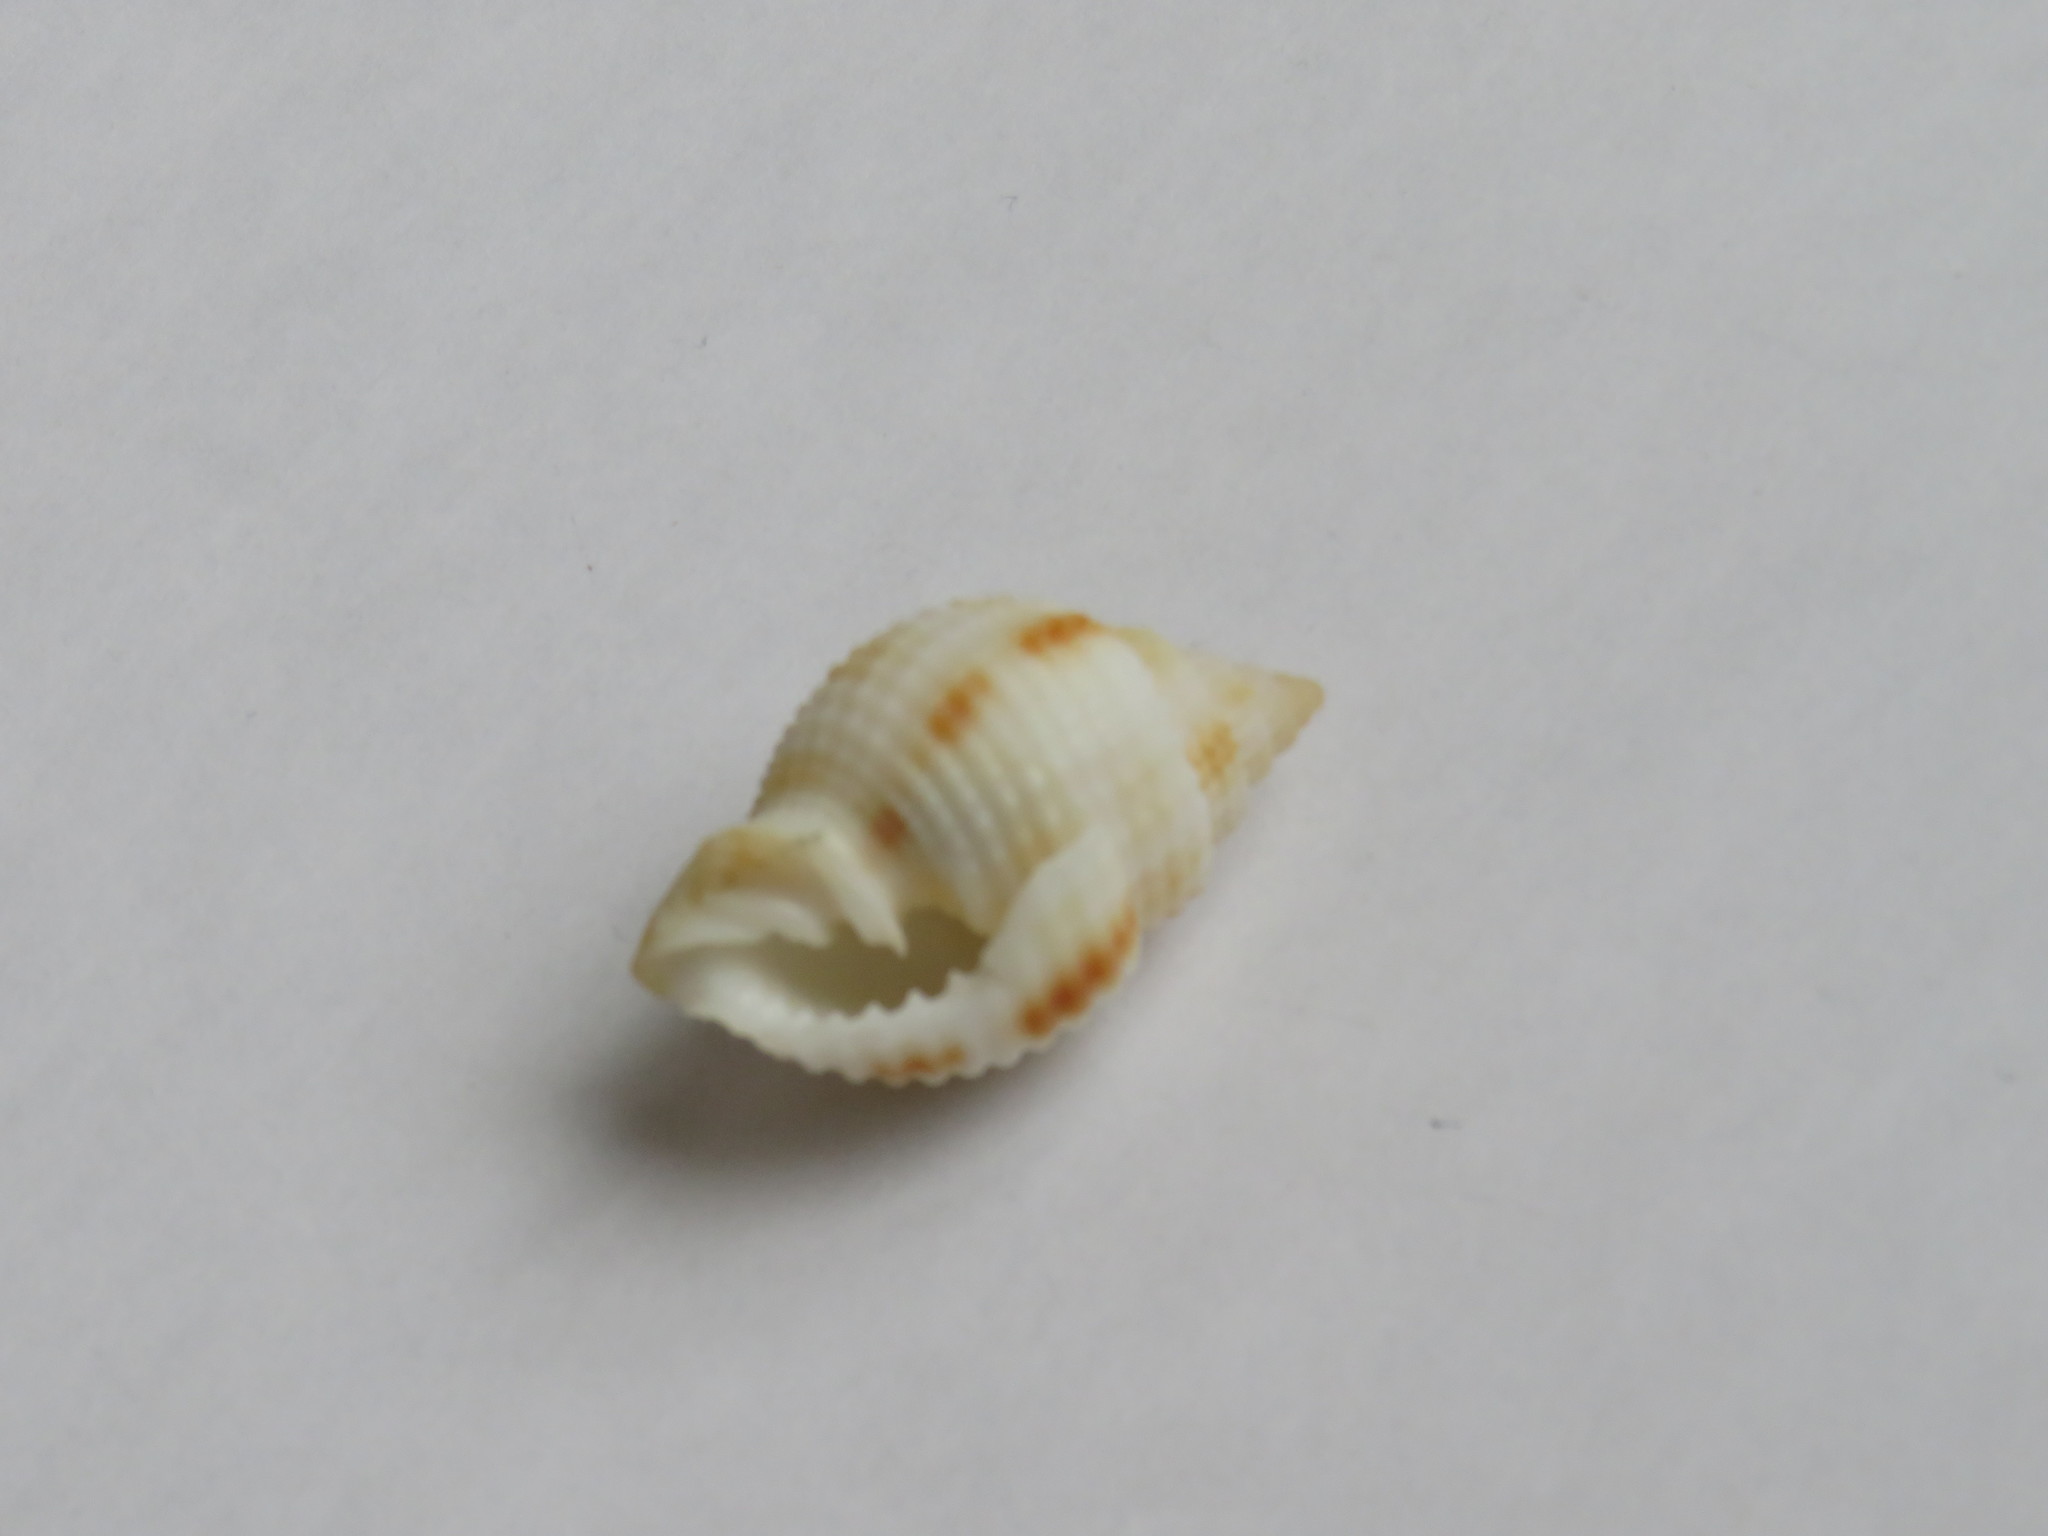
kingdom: Animalia
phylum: Mollusca
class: Gastropoda
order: Neogastropoda
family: Cancellariidae
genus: Cancellaria
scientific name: Cancellaria reticulata
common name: Common nutmeg
